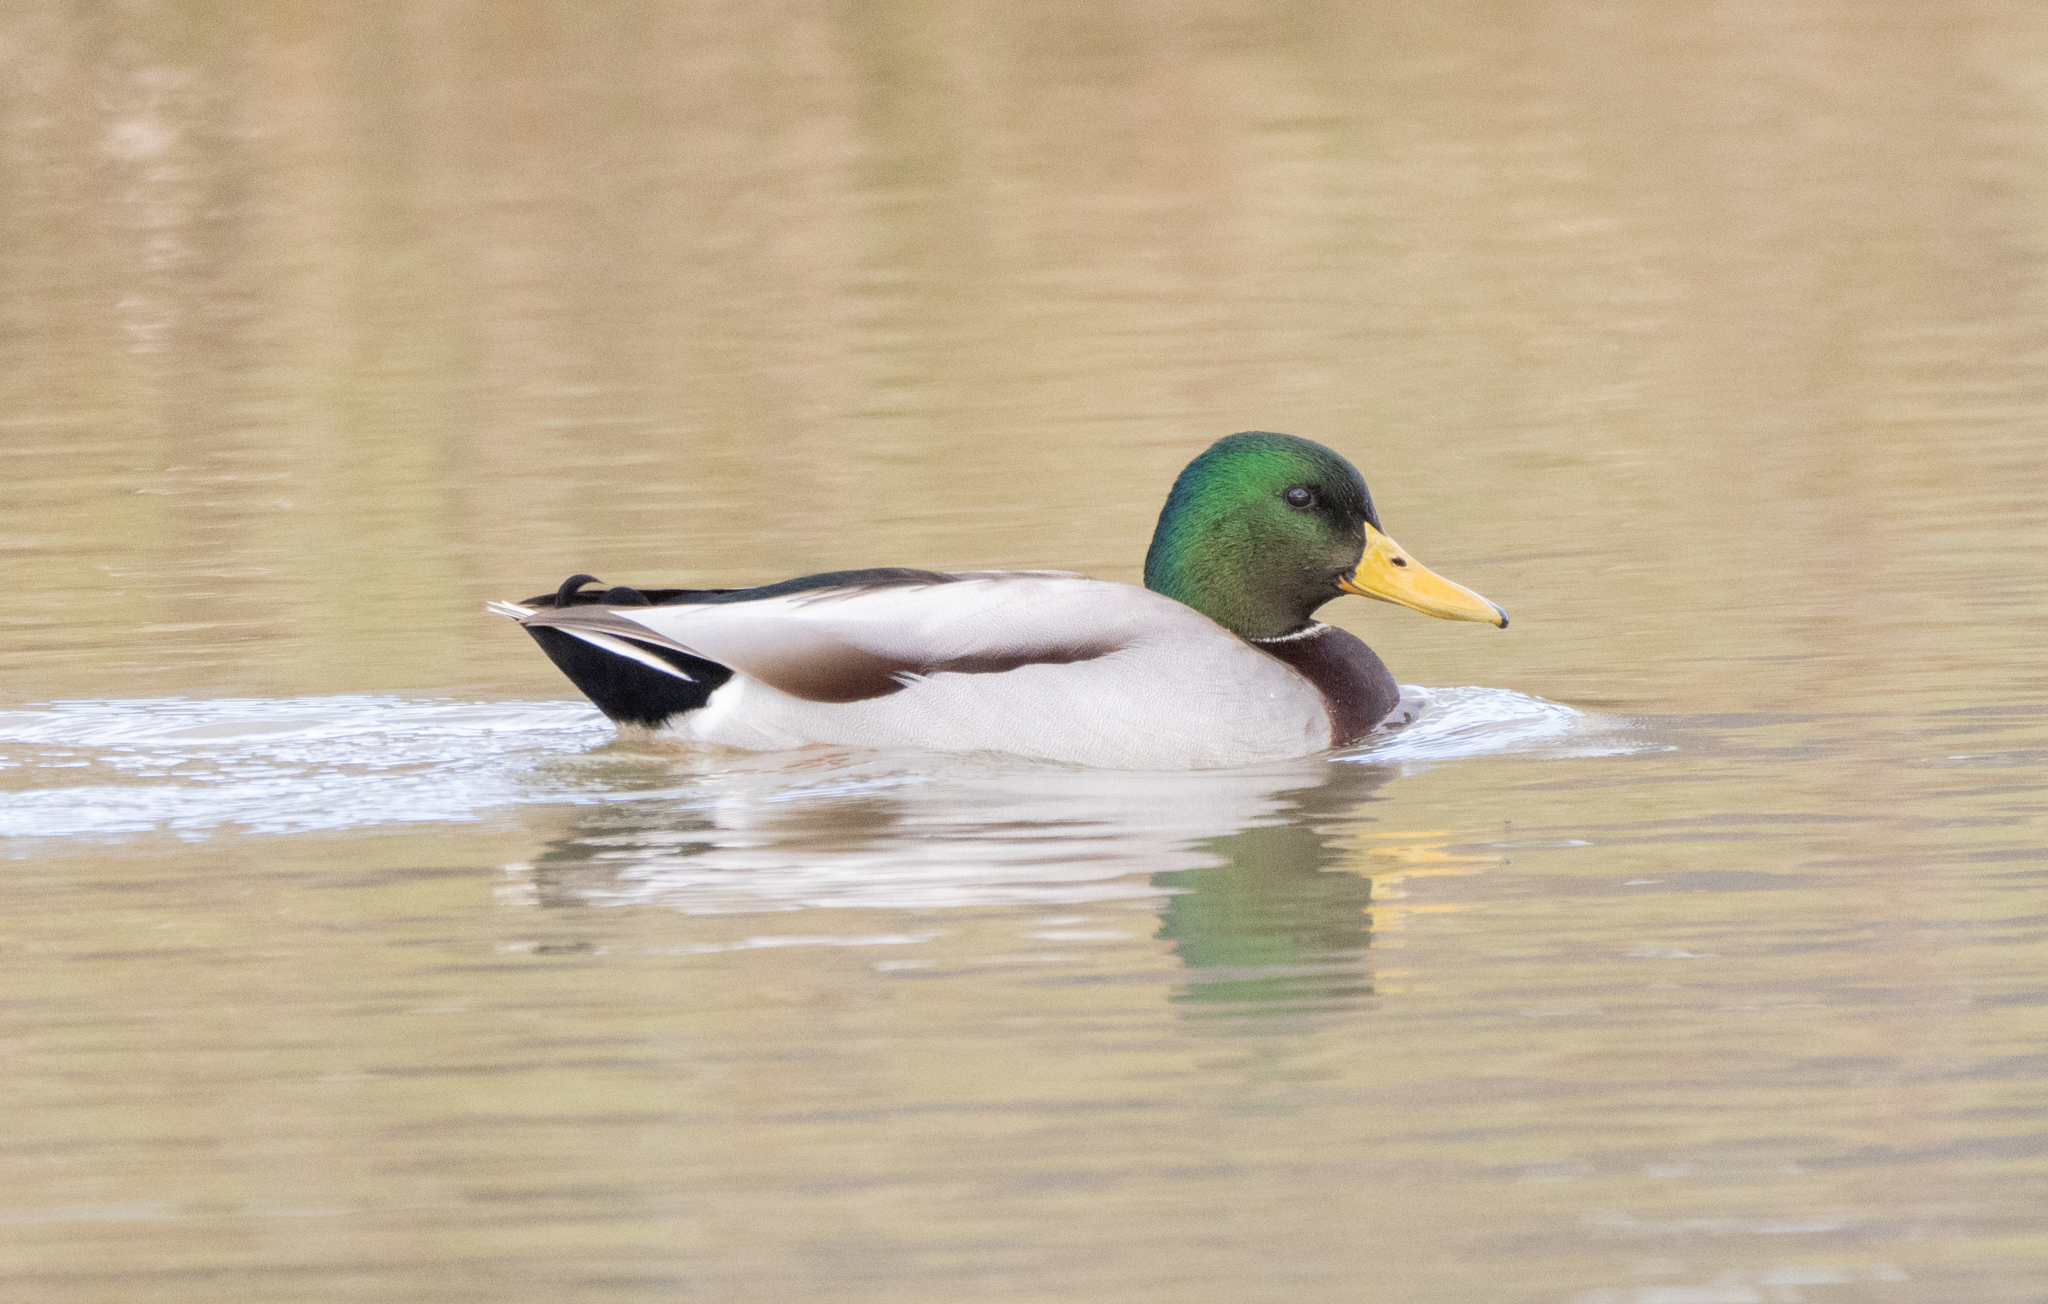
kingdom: Animalia
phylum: Chordata
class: Aves
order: Anseriformes
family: Anatidae
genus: Anas
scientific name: Anas platyrhynchos
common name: Mallard
